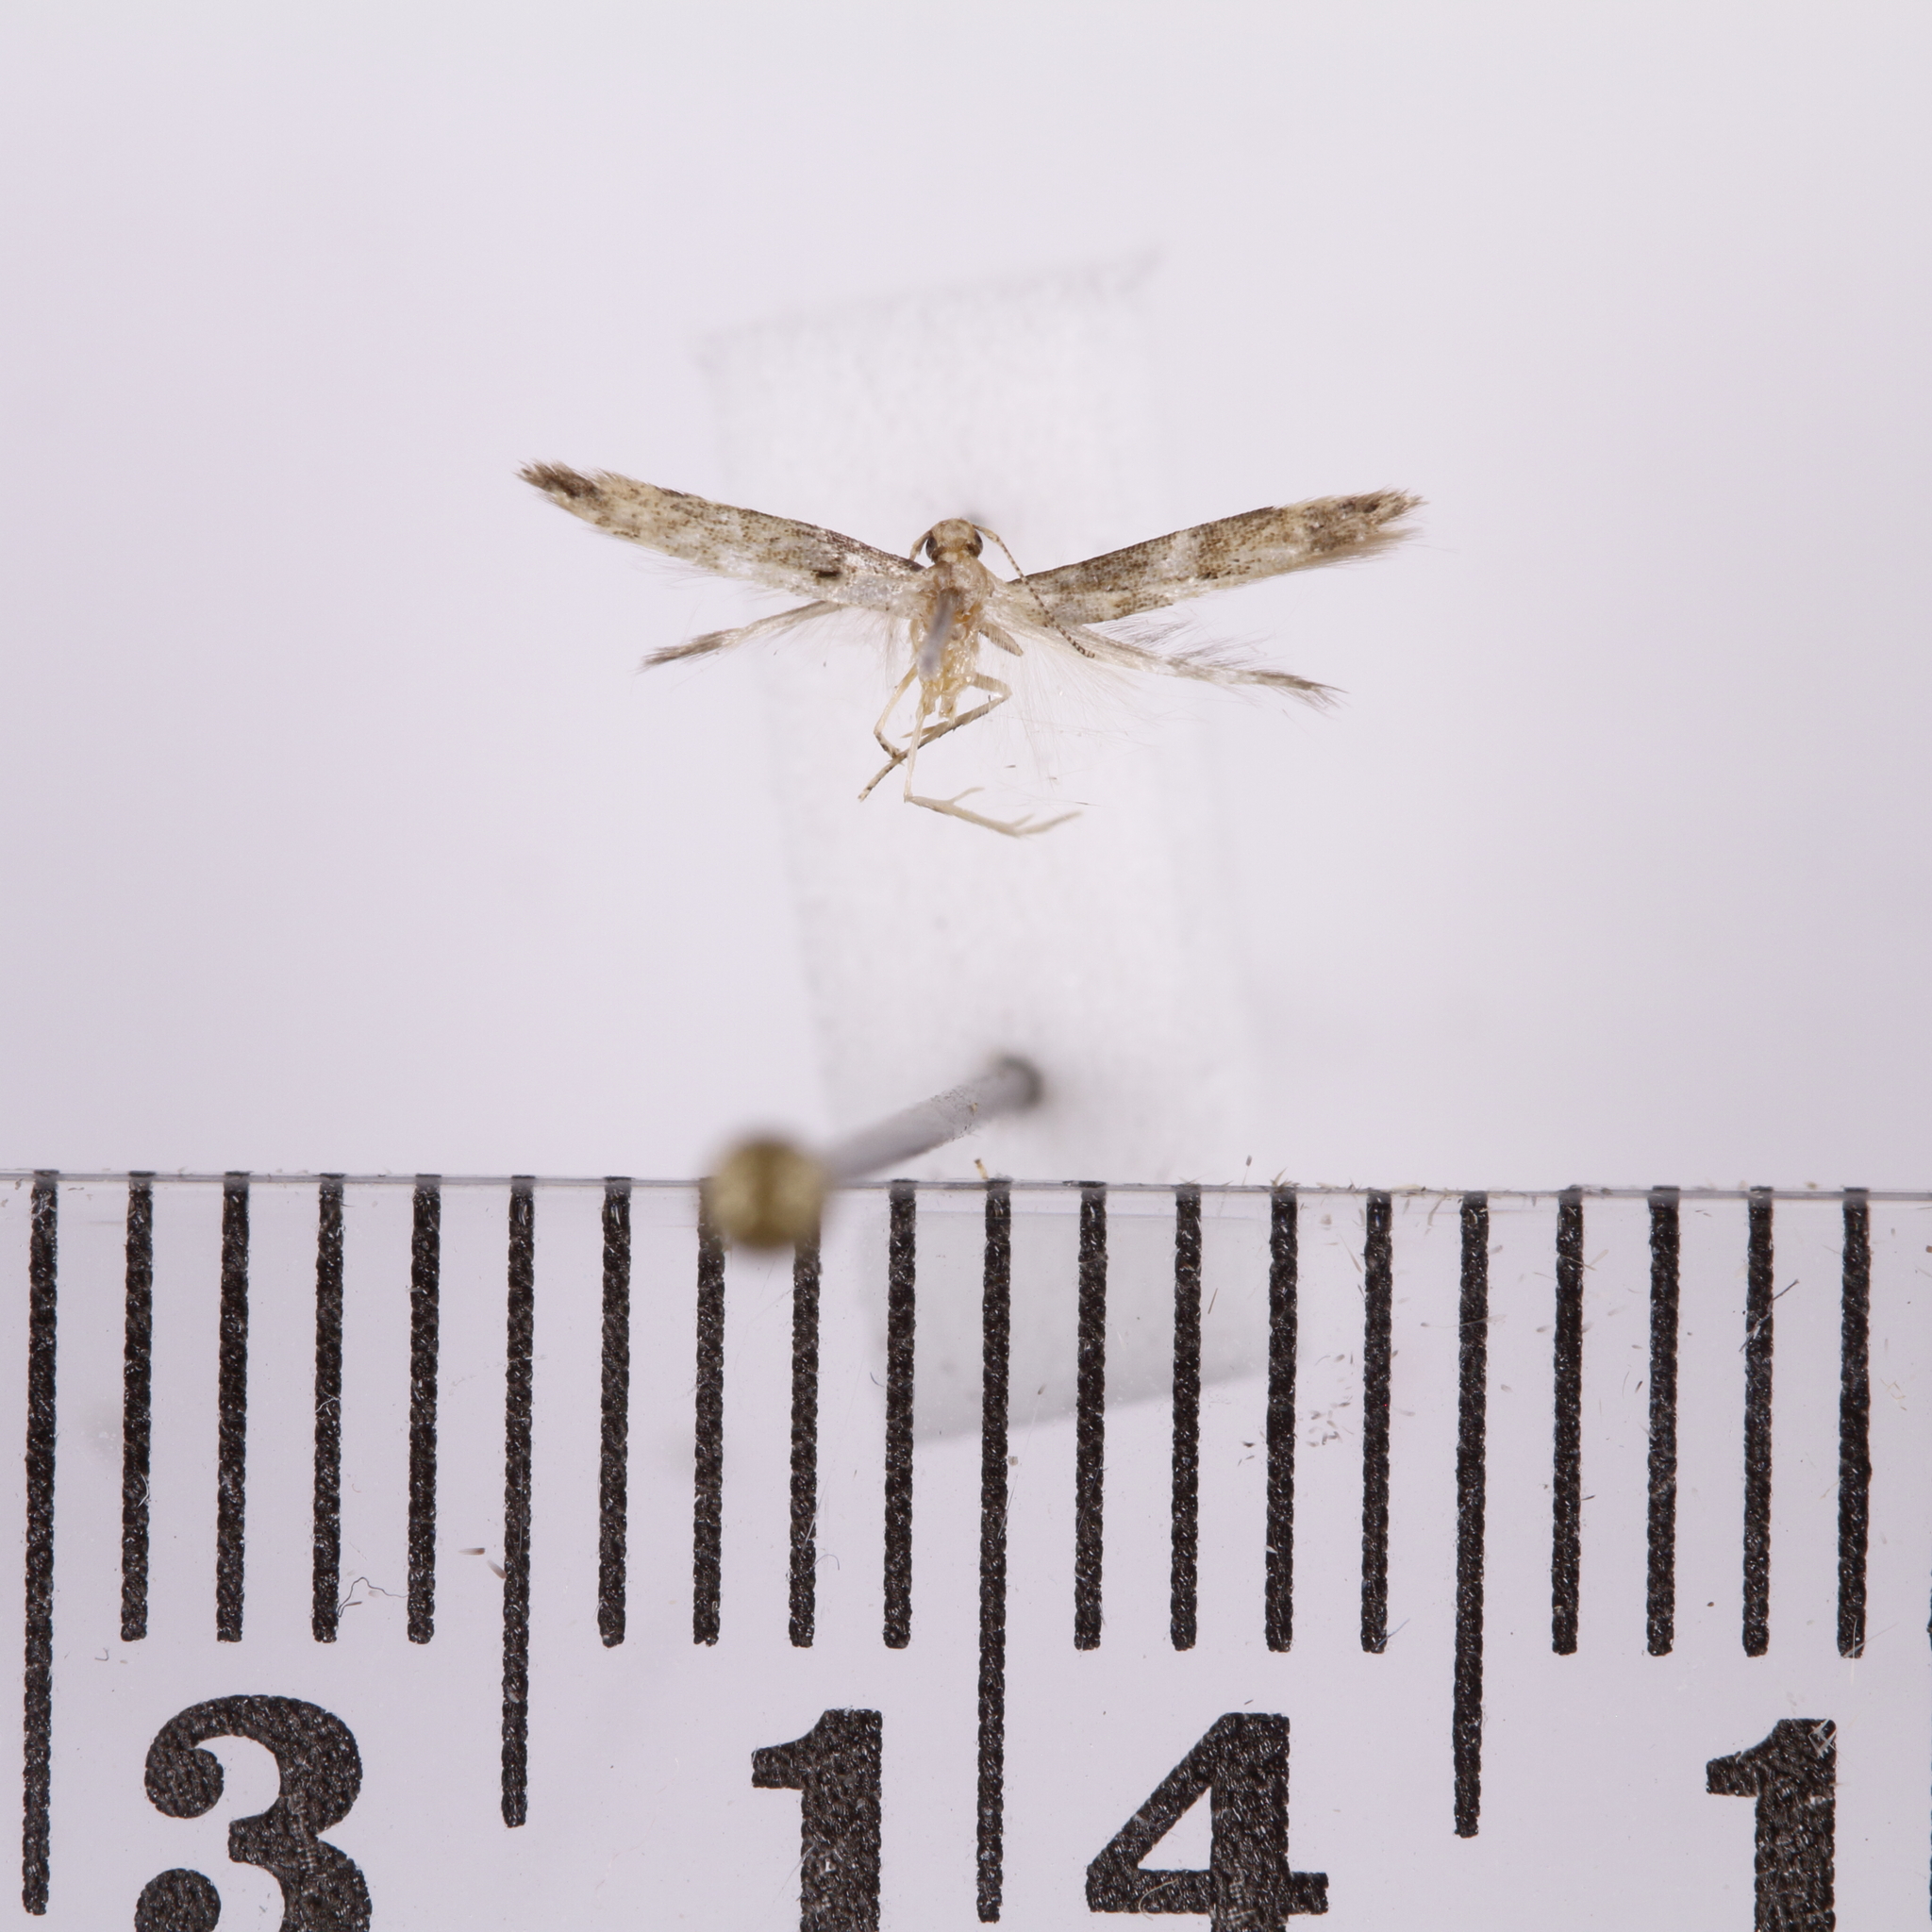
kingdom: Animalia
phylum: Arthropoda
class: Insecta
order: Lepidoptera
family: Elachistidae
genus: Microcolona
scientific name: Microcolona limodes
